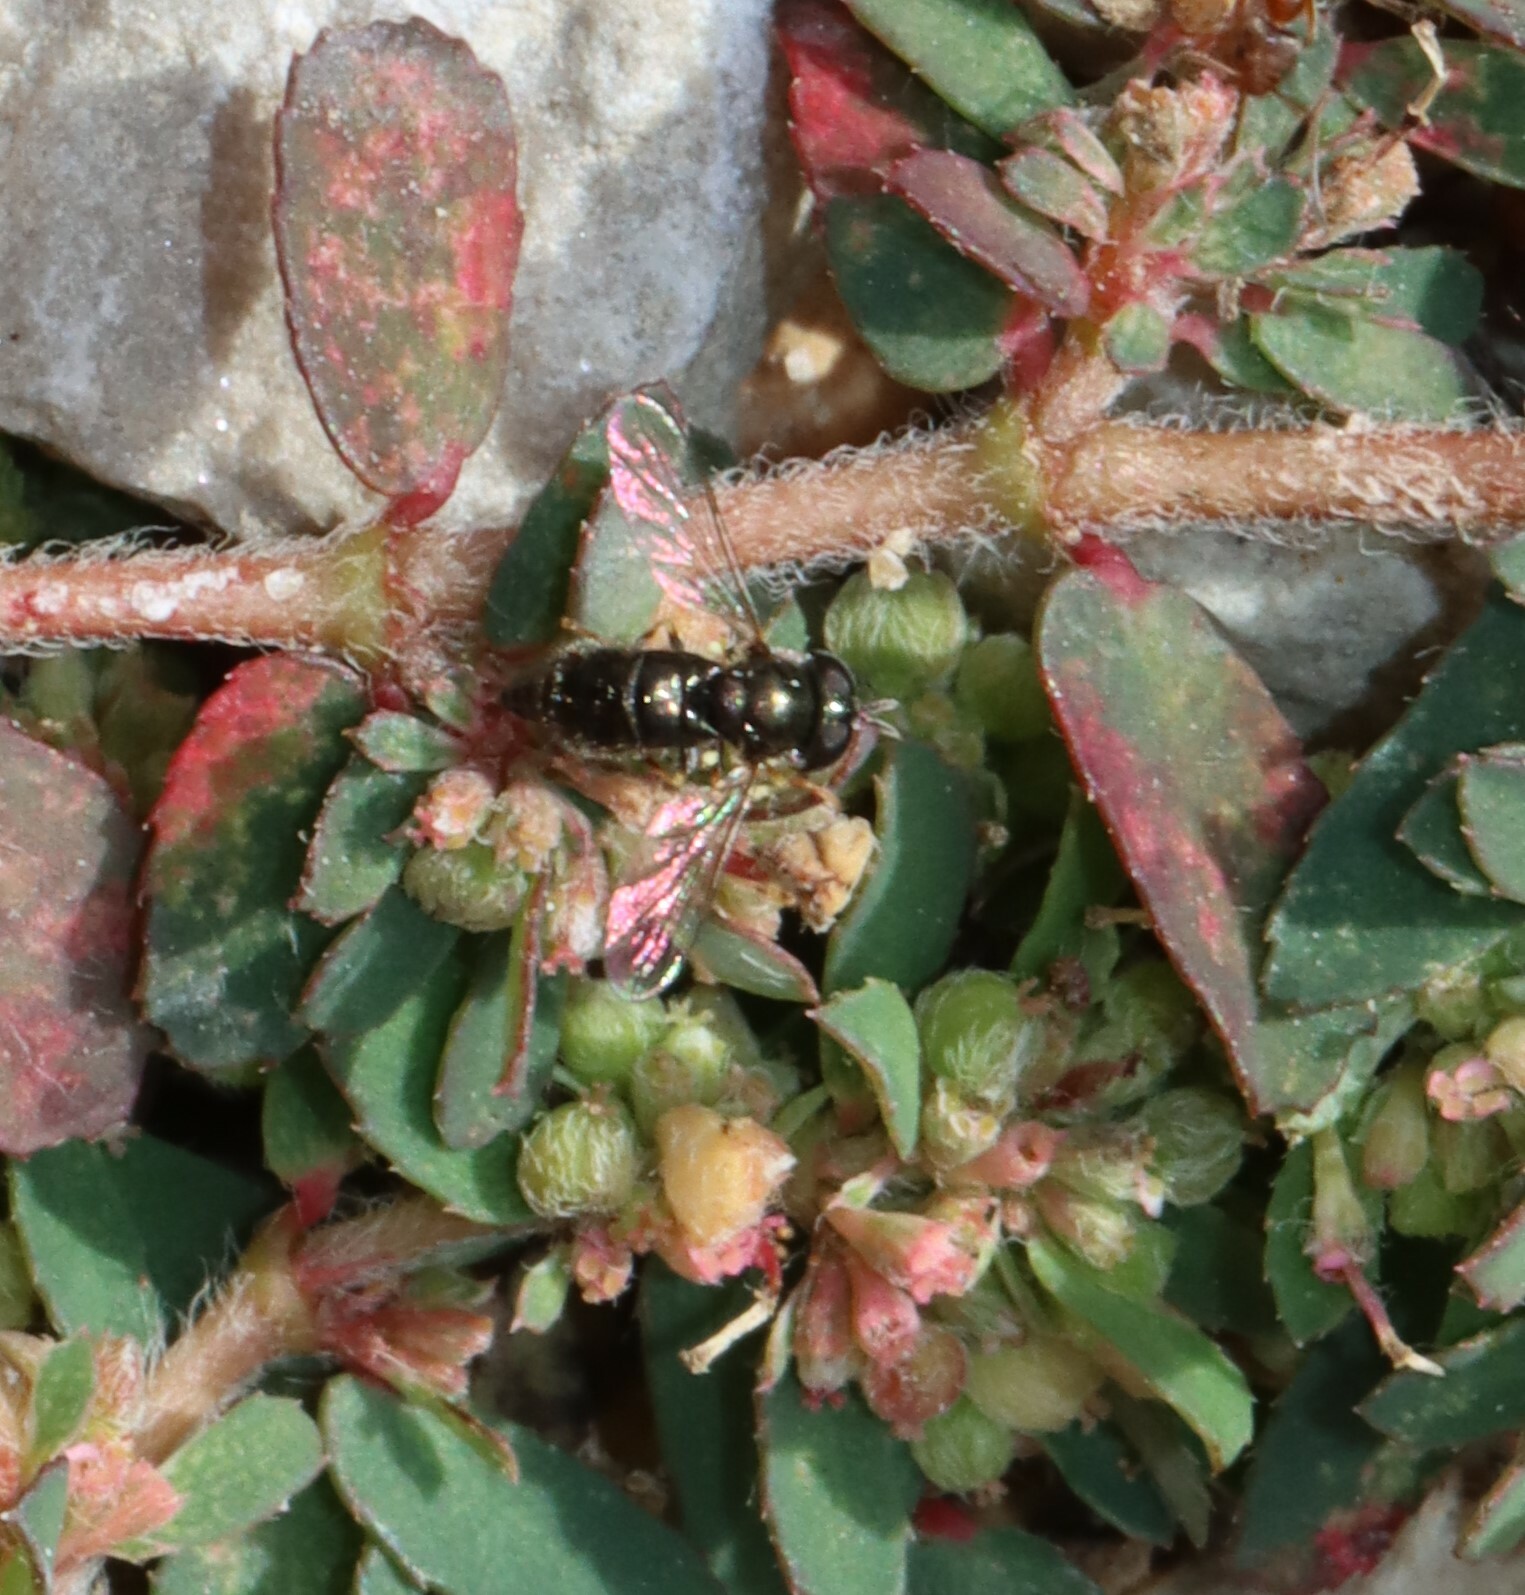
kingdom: Animalia
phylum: Arthropoda
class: Insecta
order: Diptera
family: Syrphidae
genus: Paragus
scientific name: Paragus haemorrhous
